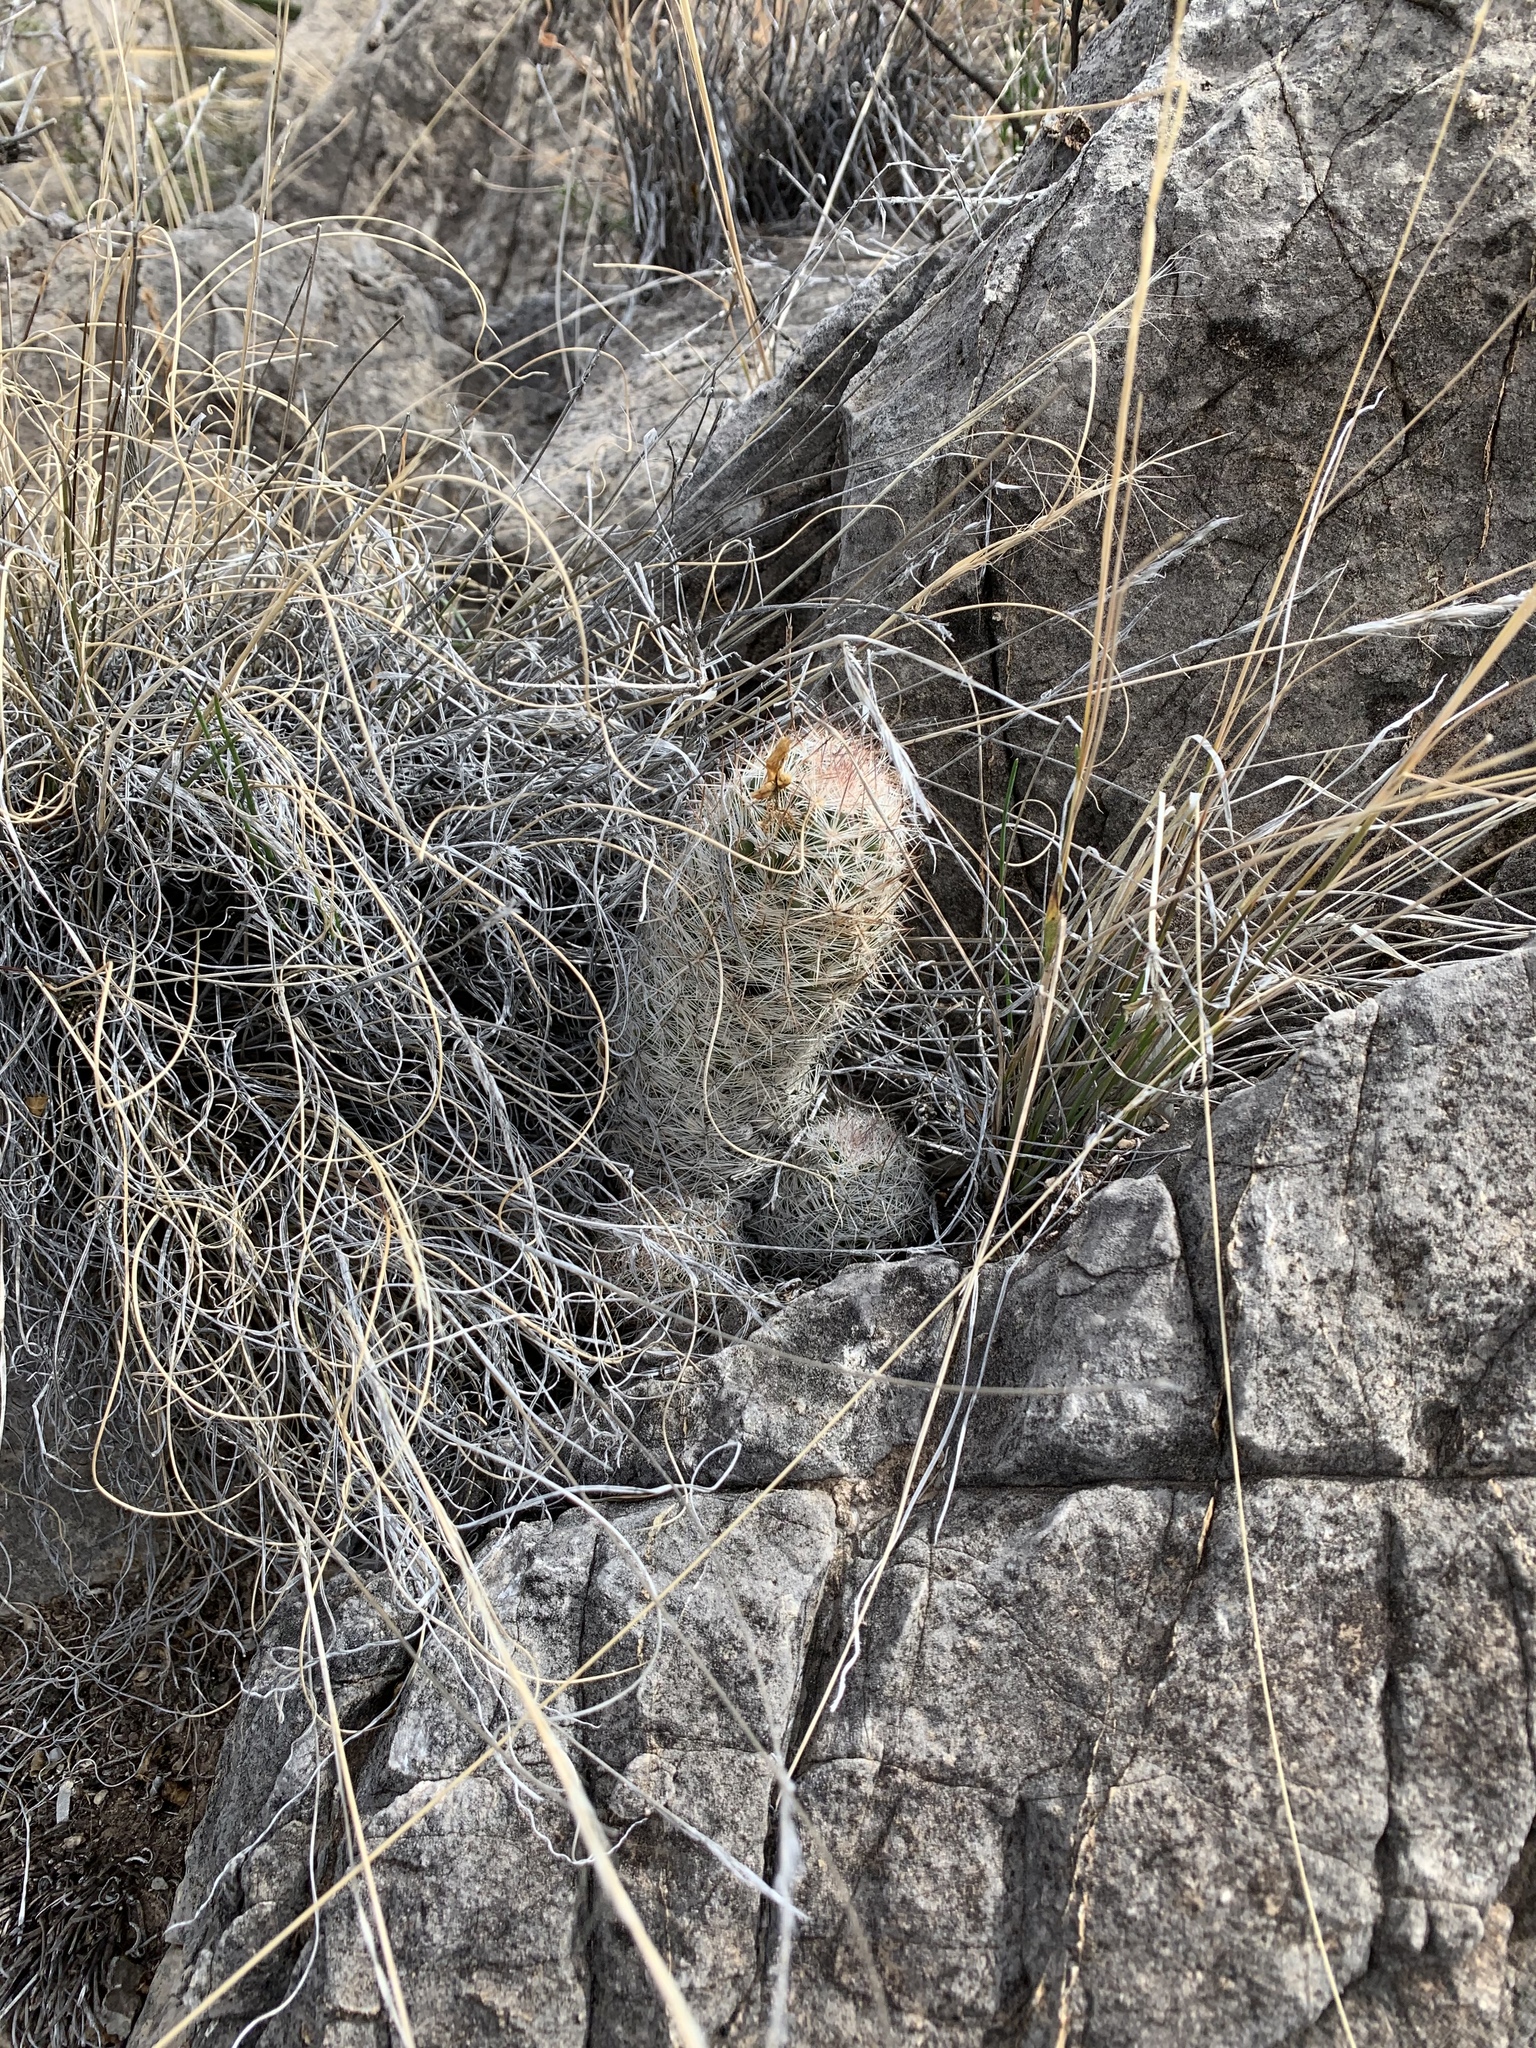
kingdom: Plantae
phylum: Tracheophyta
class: Magnoliopsida
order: Caryophyllales
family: Cactaceae
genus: Pelecyphora
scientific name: Pelecyphora tuberculosa
